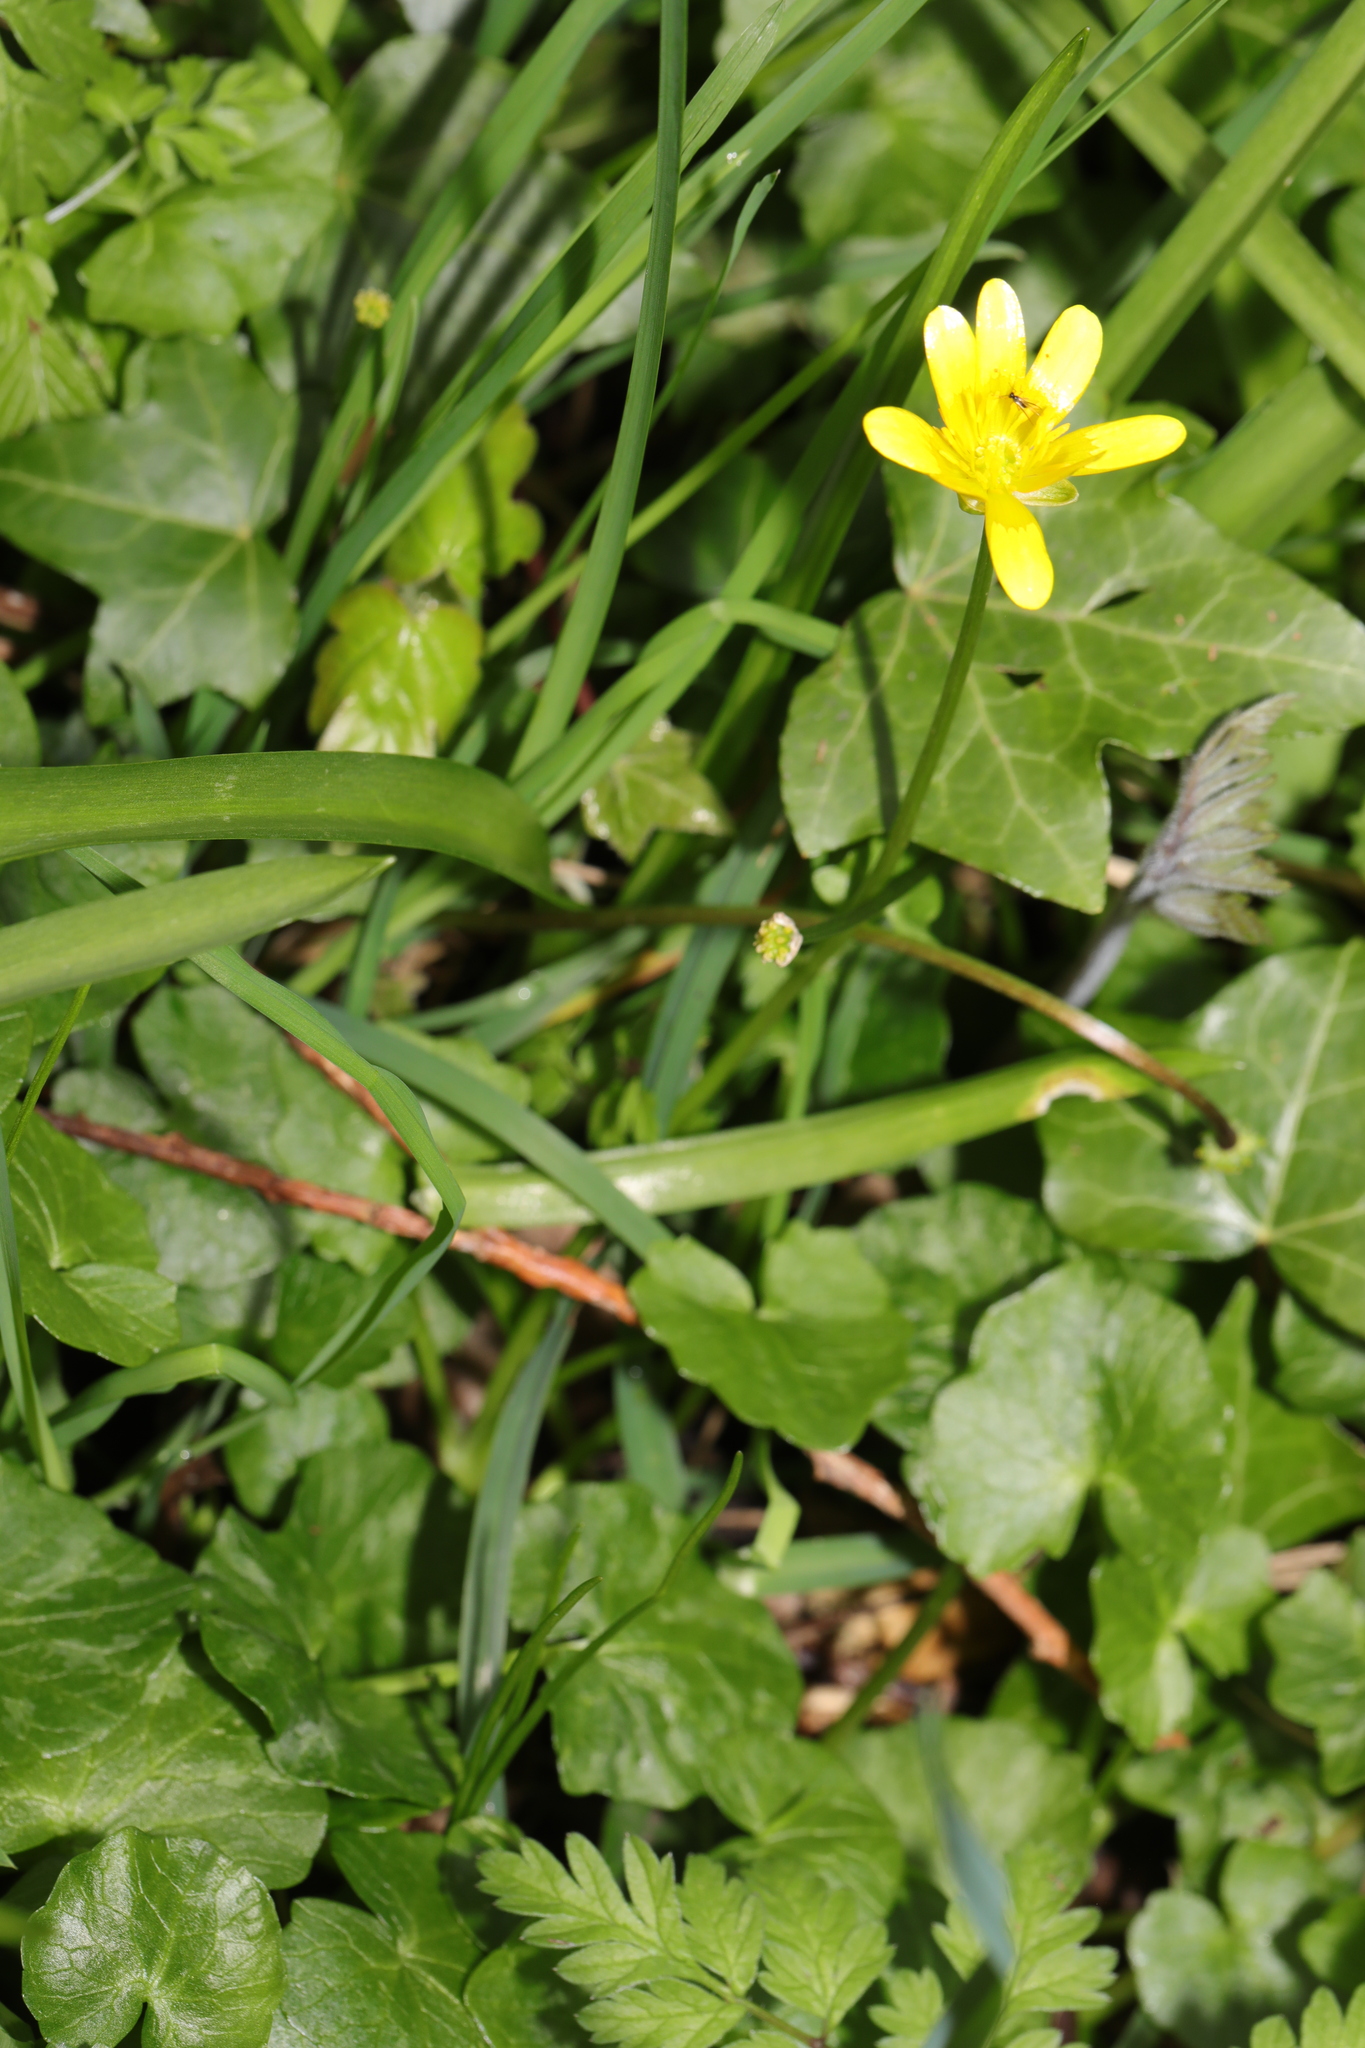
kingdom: Plantae
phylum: Tracheophyta
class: Magnoliopsida
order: Ranunculales
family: Ranunculaceae
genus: Ficaria
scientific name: Ficaria verna
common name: Lesser celandine
